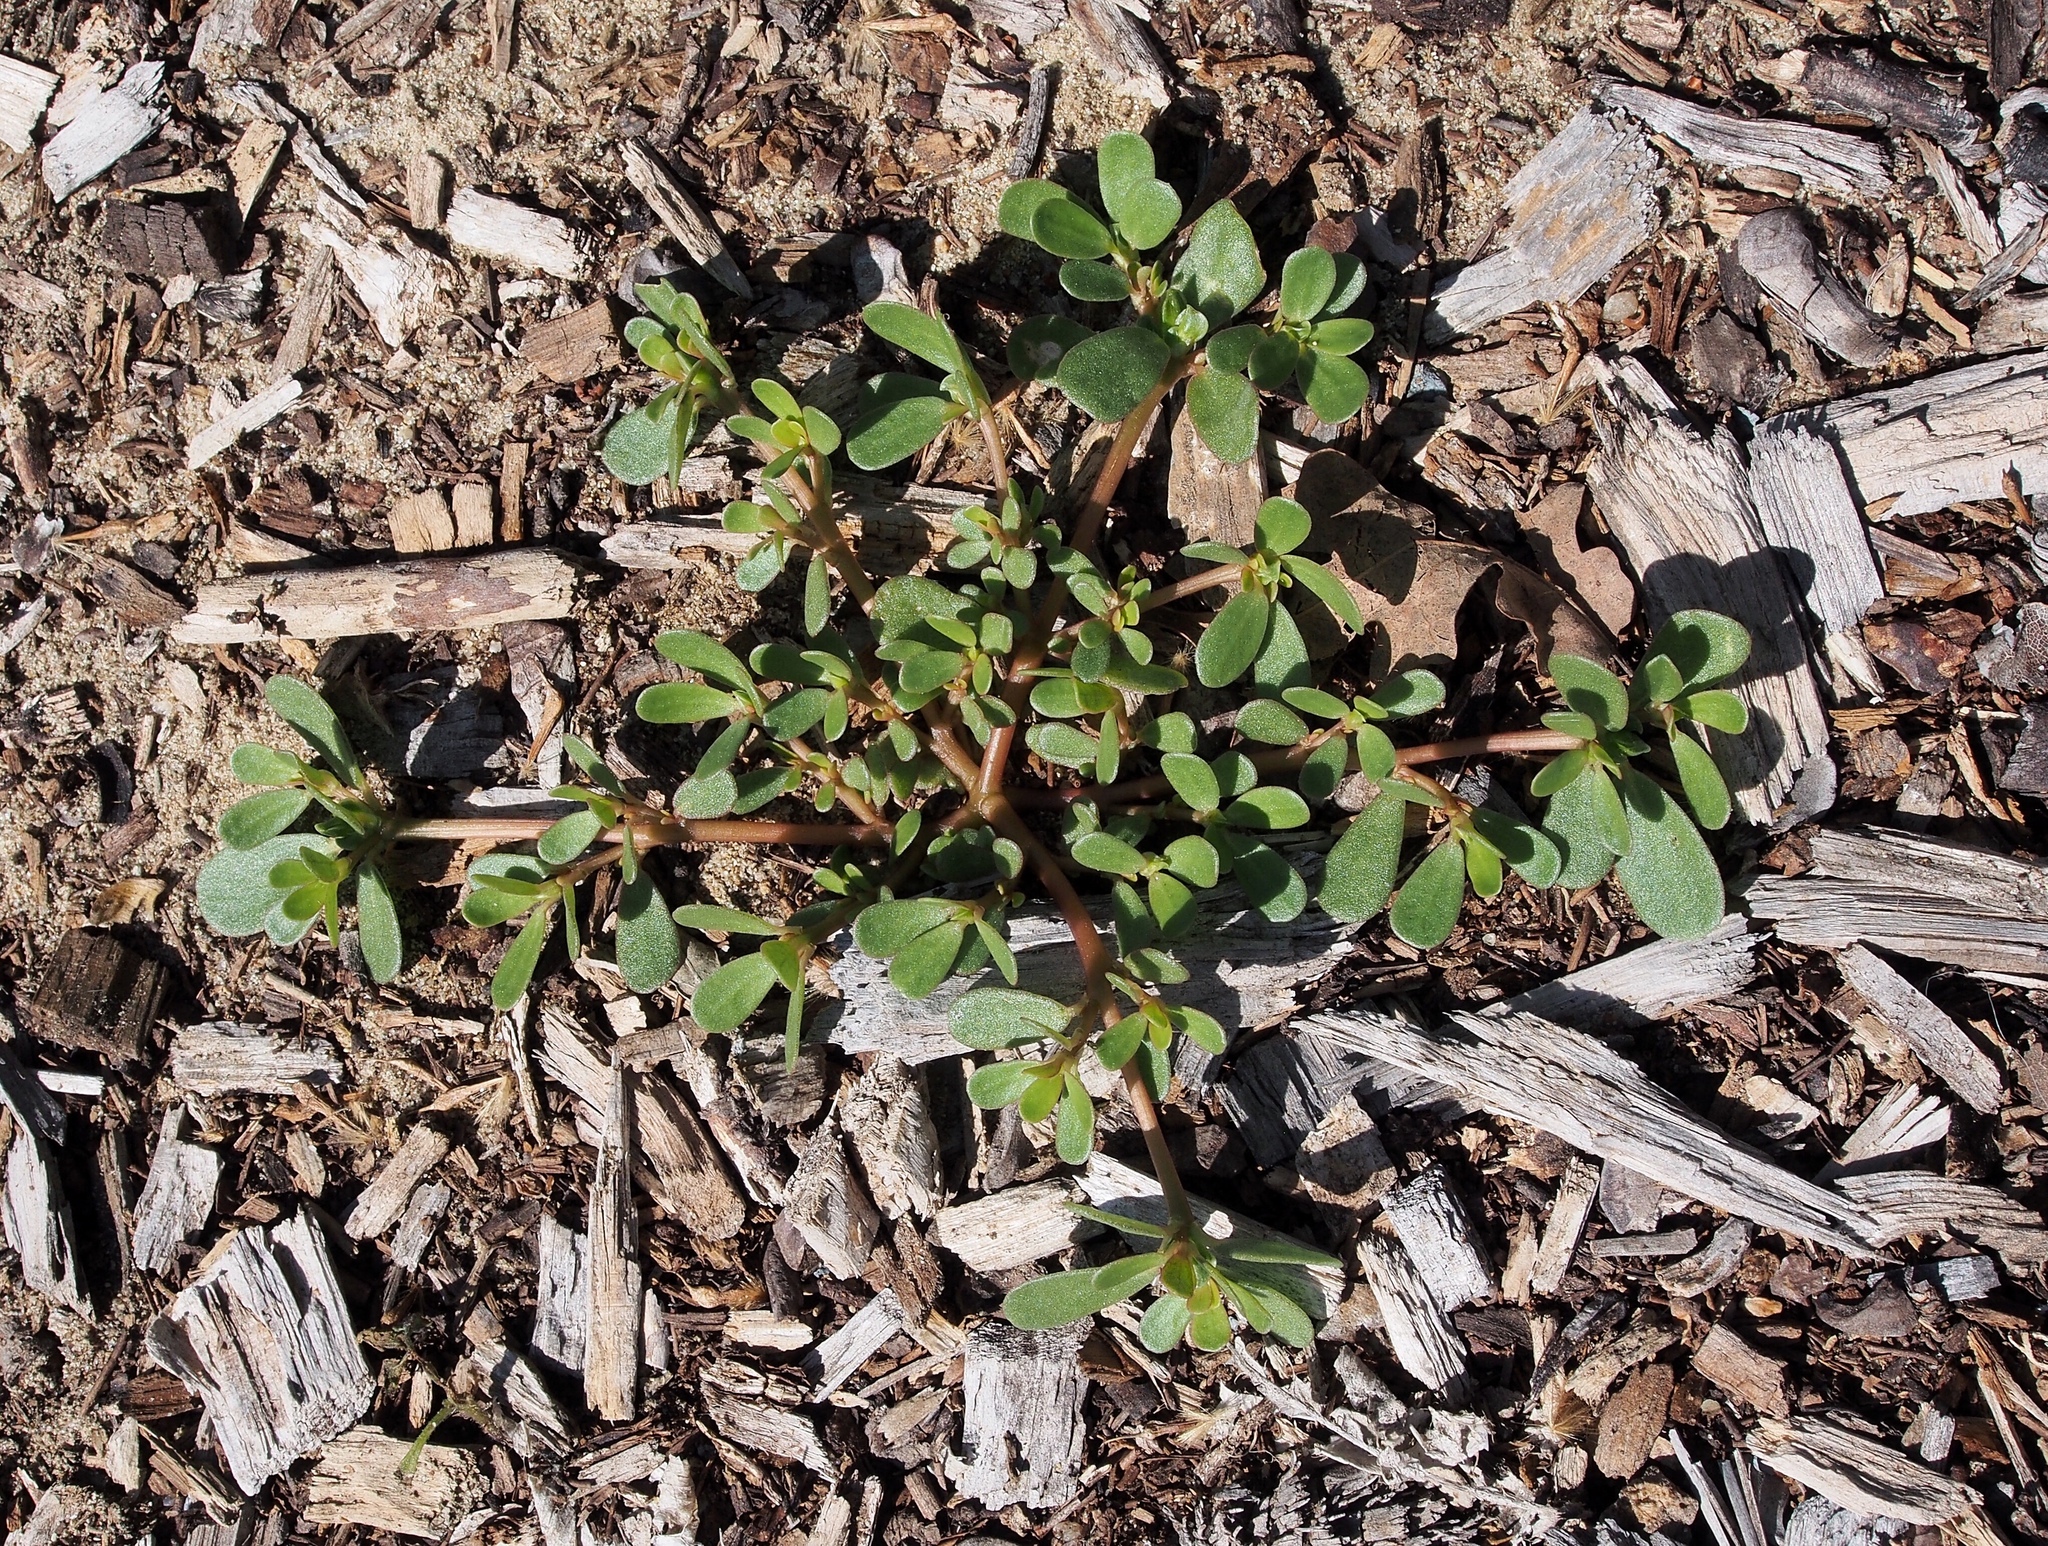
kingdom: Plantae
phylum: Tracheophyta
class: Magnoliopsida
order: Caryophyllales
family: Portulacaceae
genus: Portulaca
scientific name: Portulaca oleracea
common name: Common purslane
